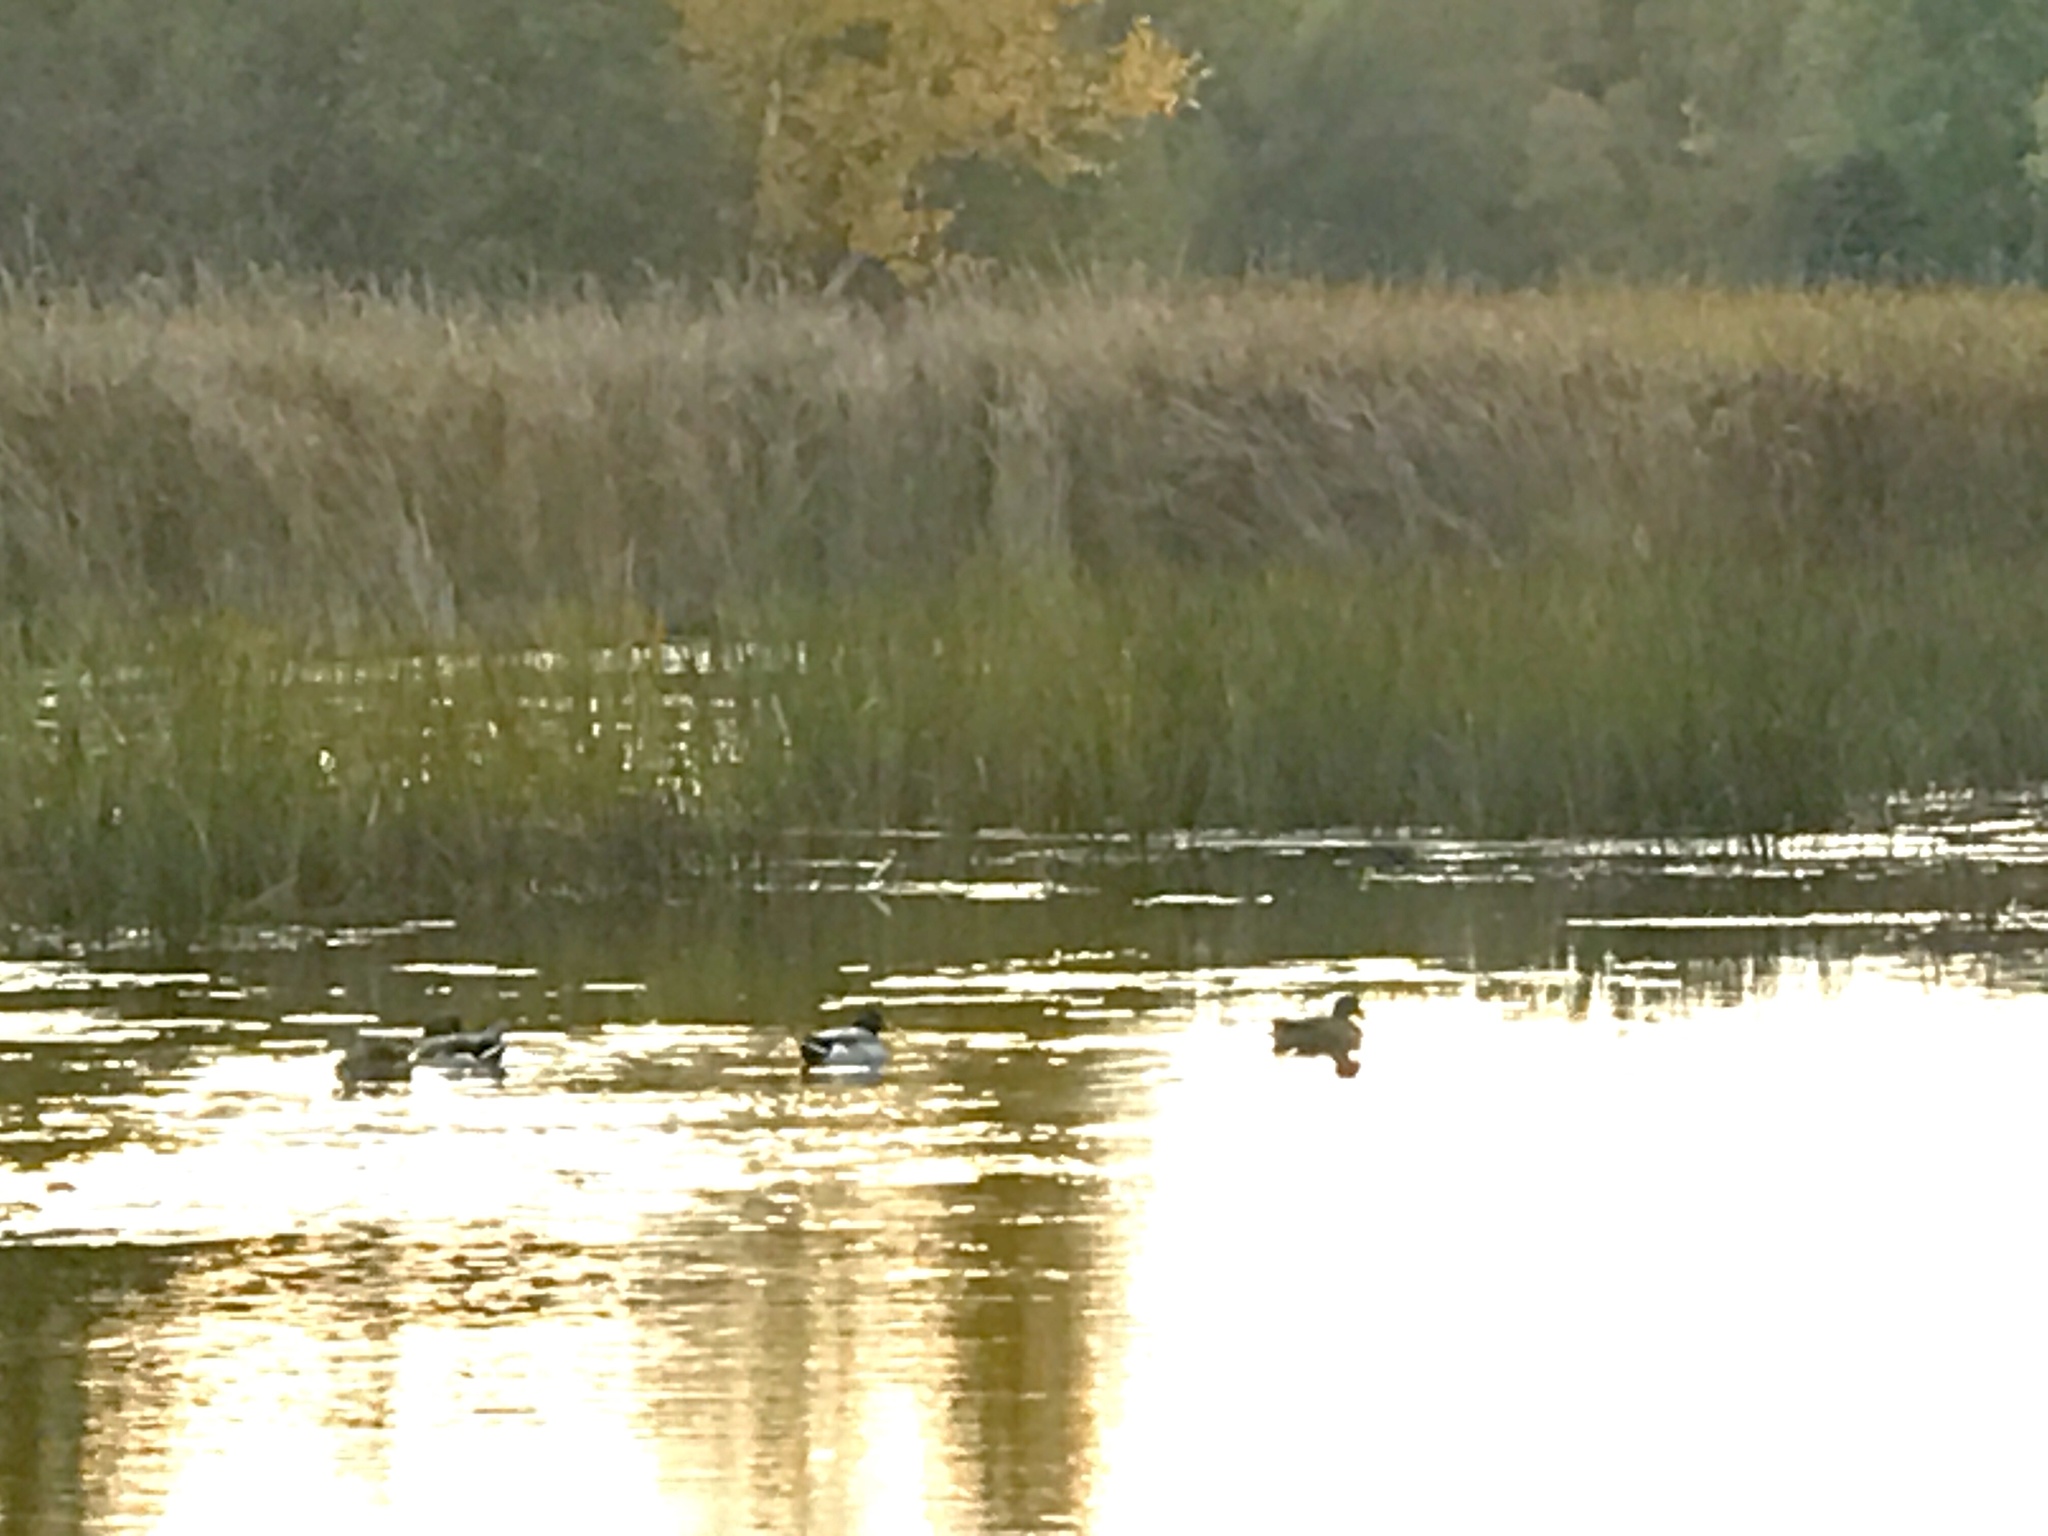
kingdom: Animalia
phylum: Chordata
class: Aves
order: Anseriformes
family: Anatidae
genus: Anas
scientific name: Anas platyrhynchos
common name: Mallard
